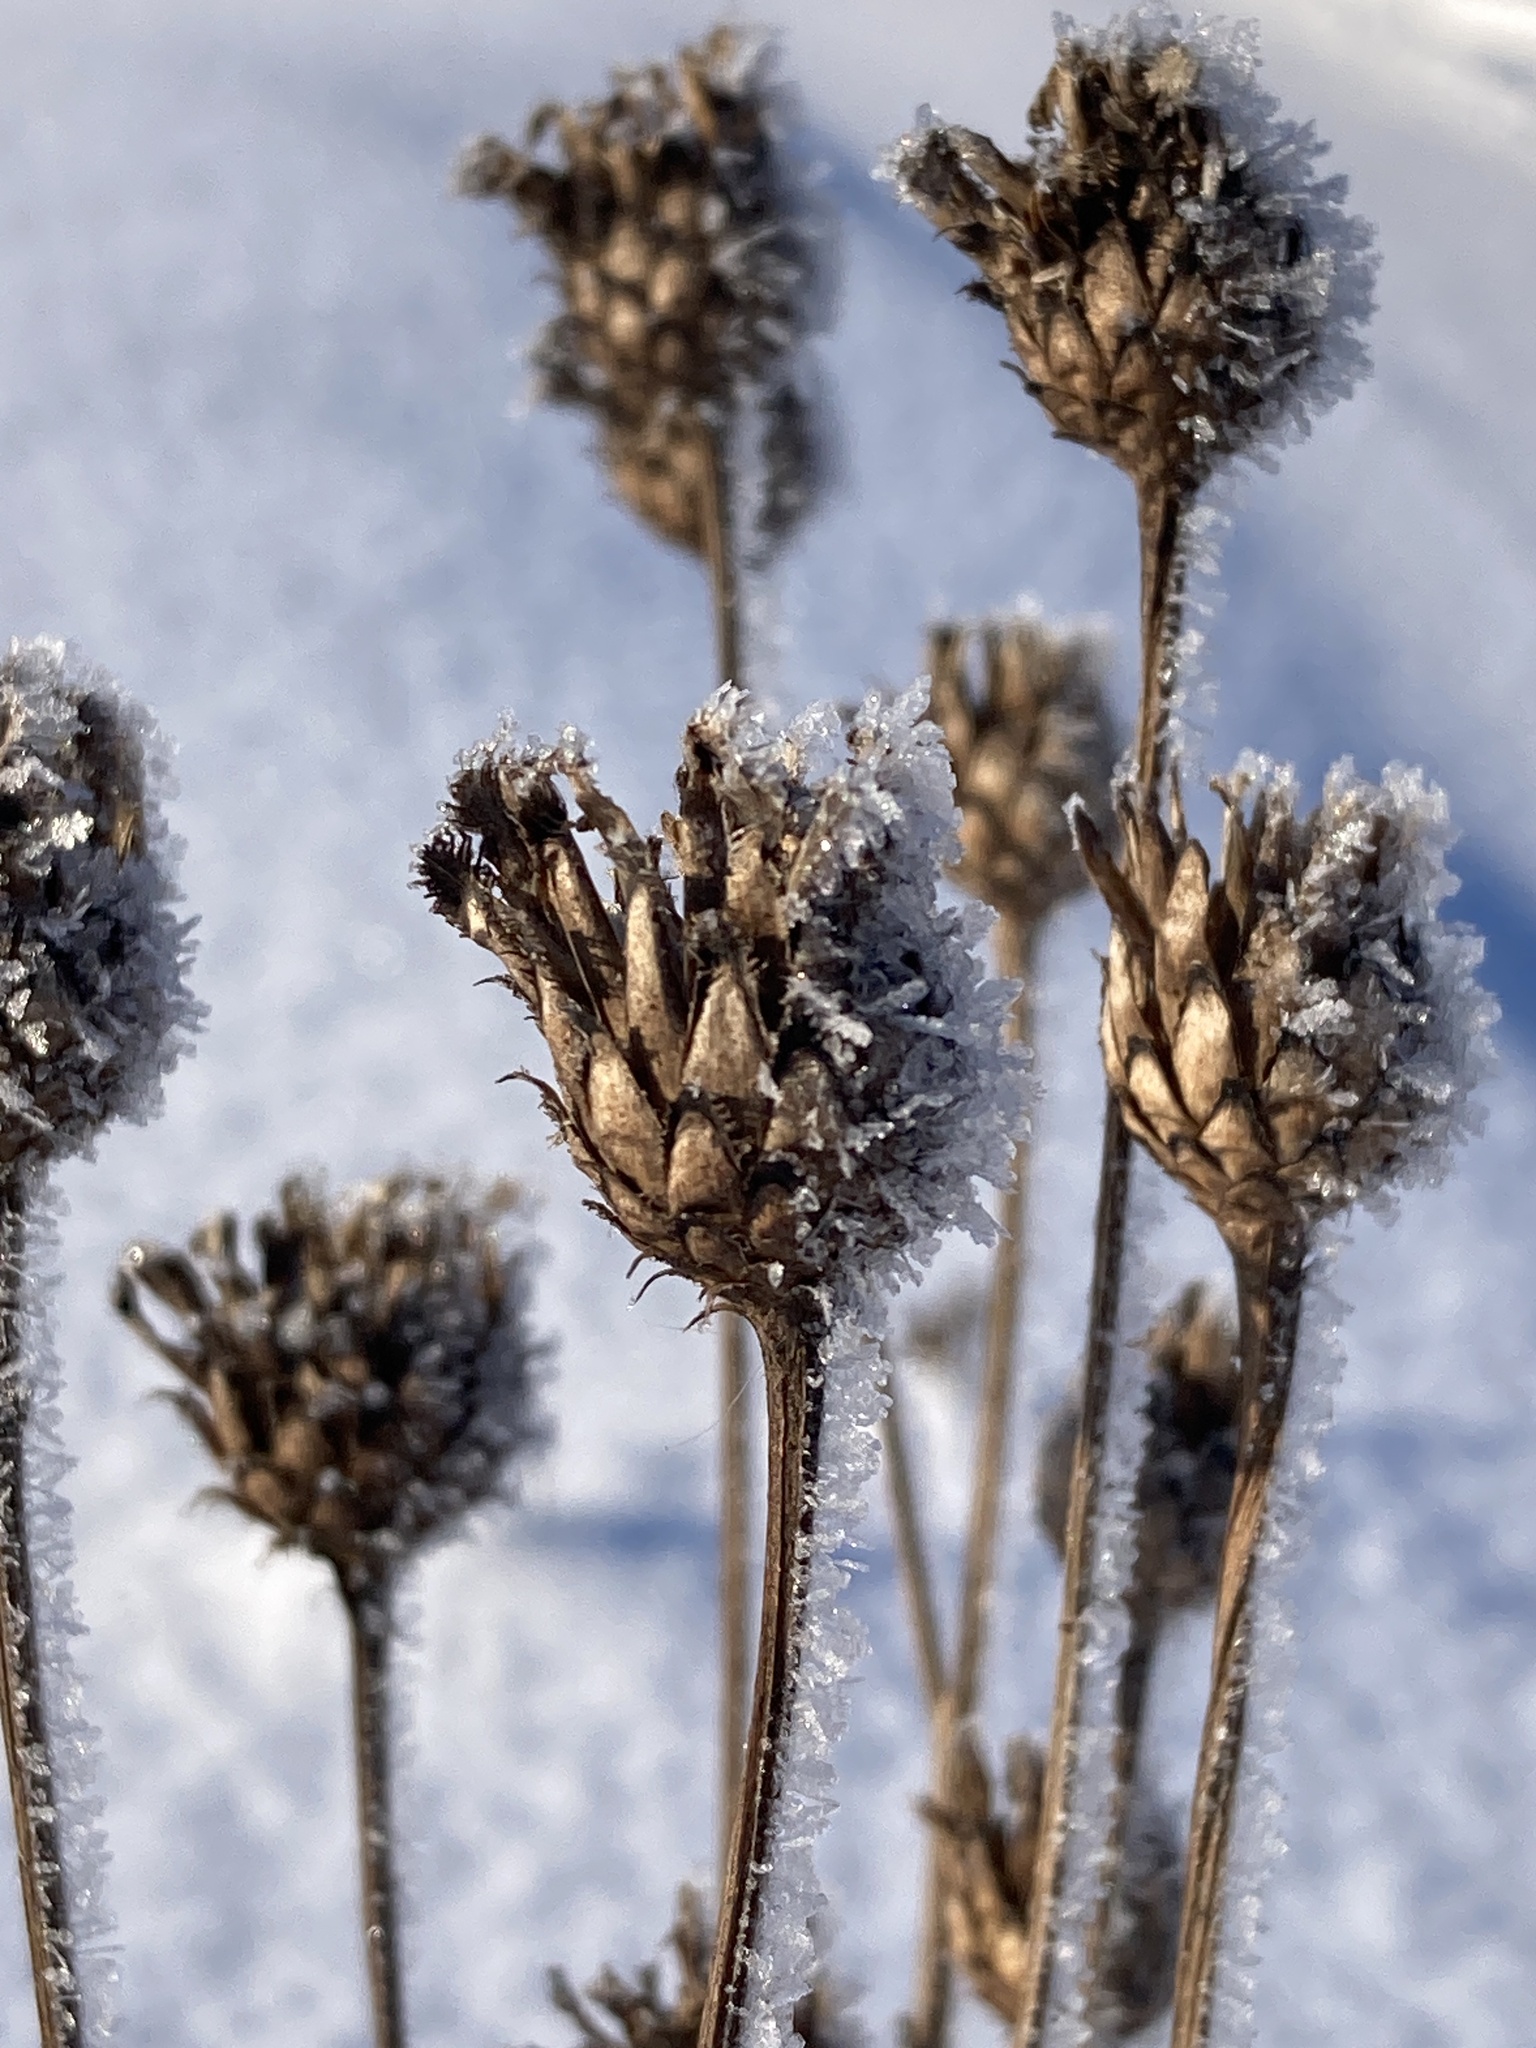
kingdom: Plantae
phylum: Tracheophyta
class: Magnoliopsida
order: Asterales
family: Asteraceae
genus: Centaurea
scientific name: Centaurea scabiosa
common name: Greater knapweed
